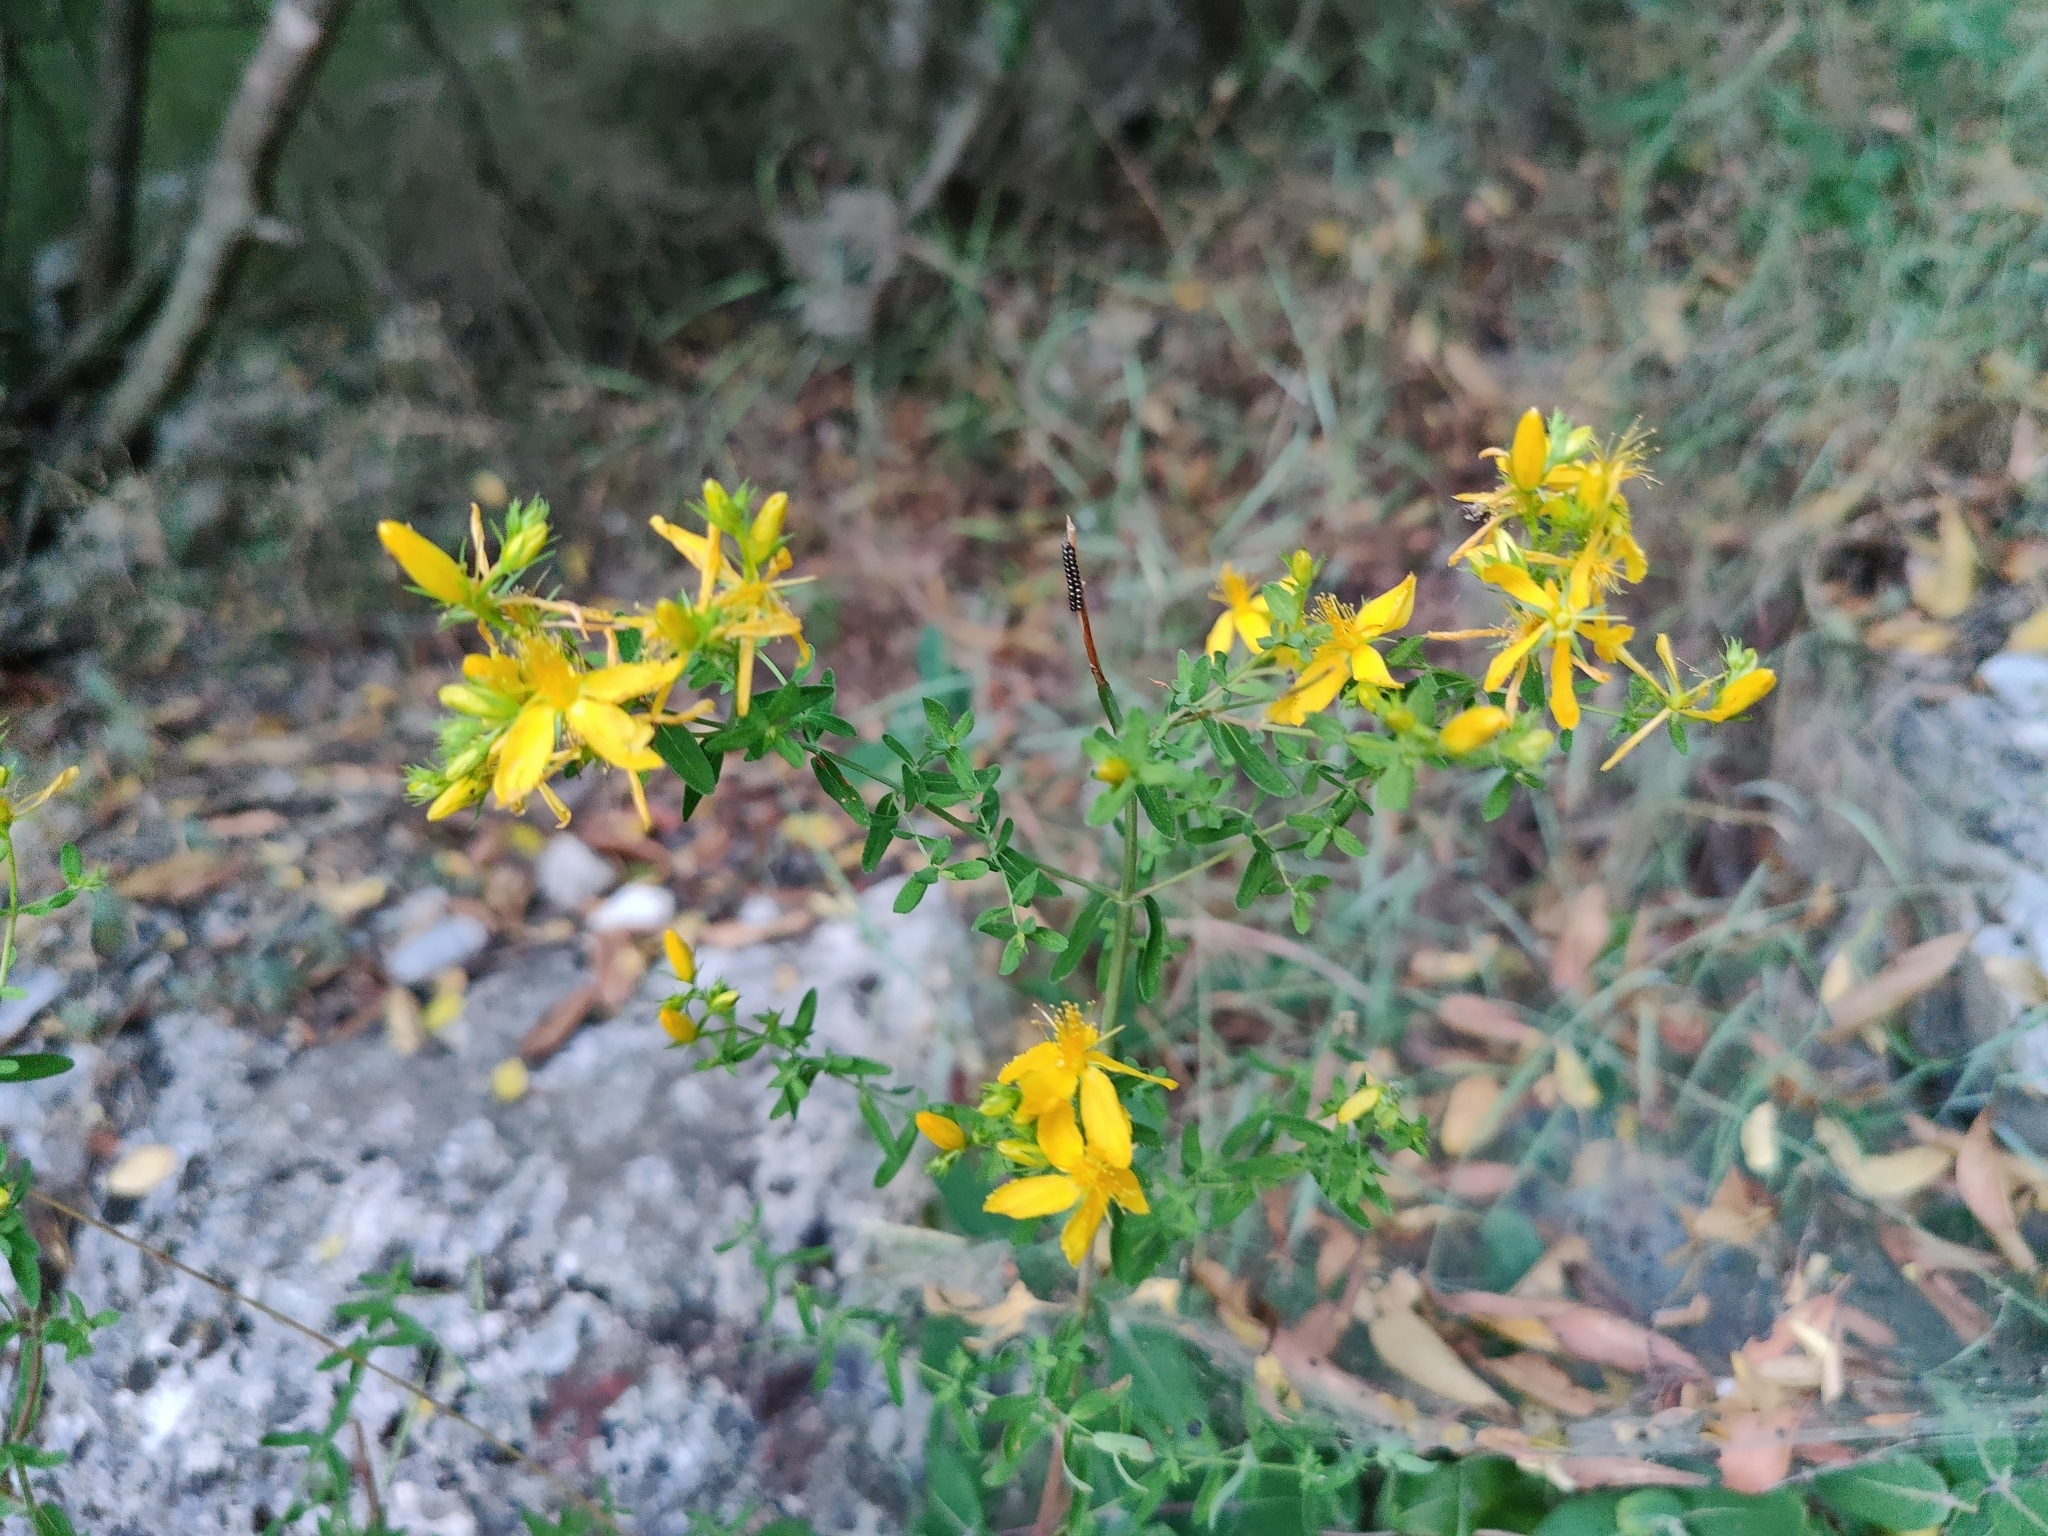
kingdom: Plantae
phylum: Tracheophyta
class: Magnoliopsida
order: Malpighiales
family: Hypericaceae
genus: Hypericum
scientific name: Hypericum perforatum
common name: Common st. johnswort
